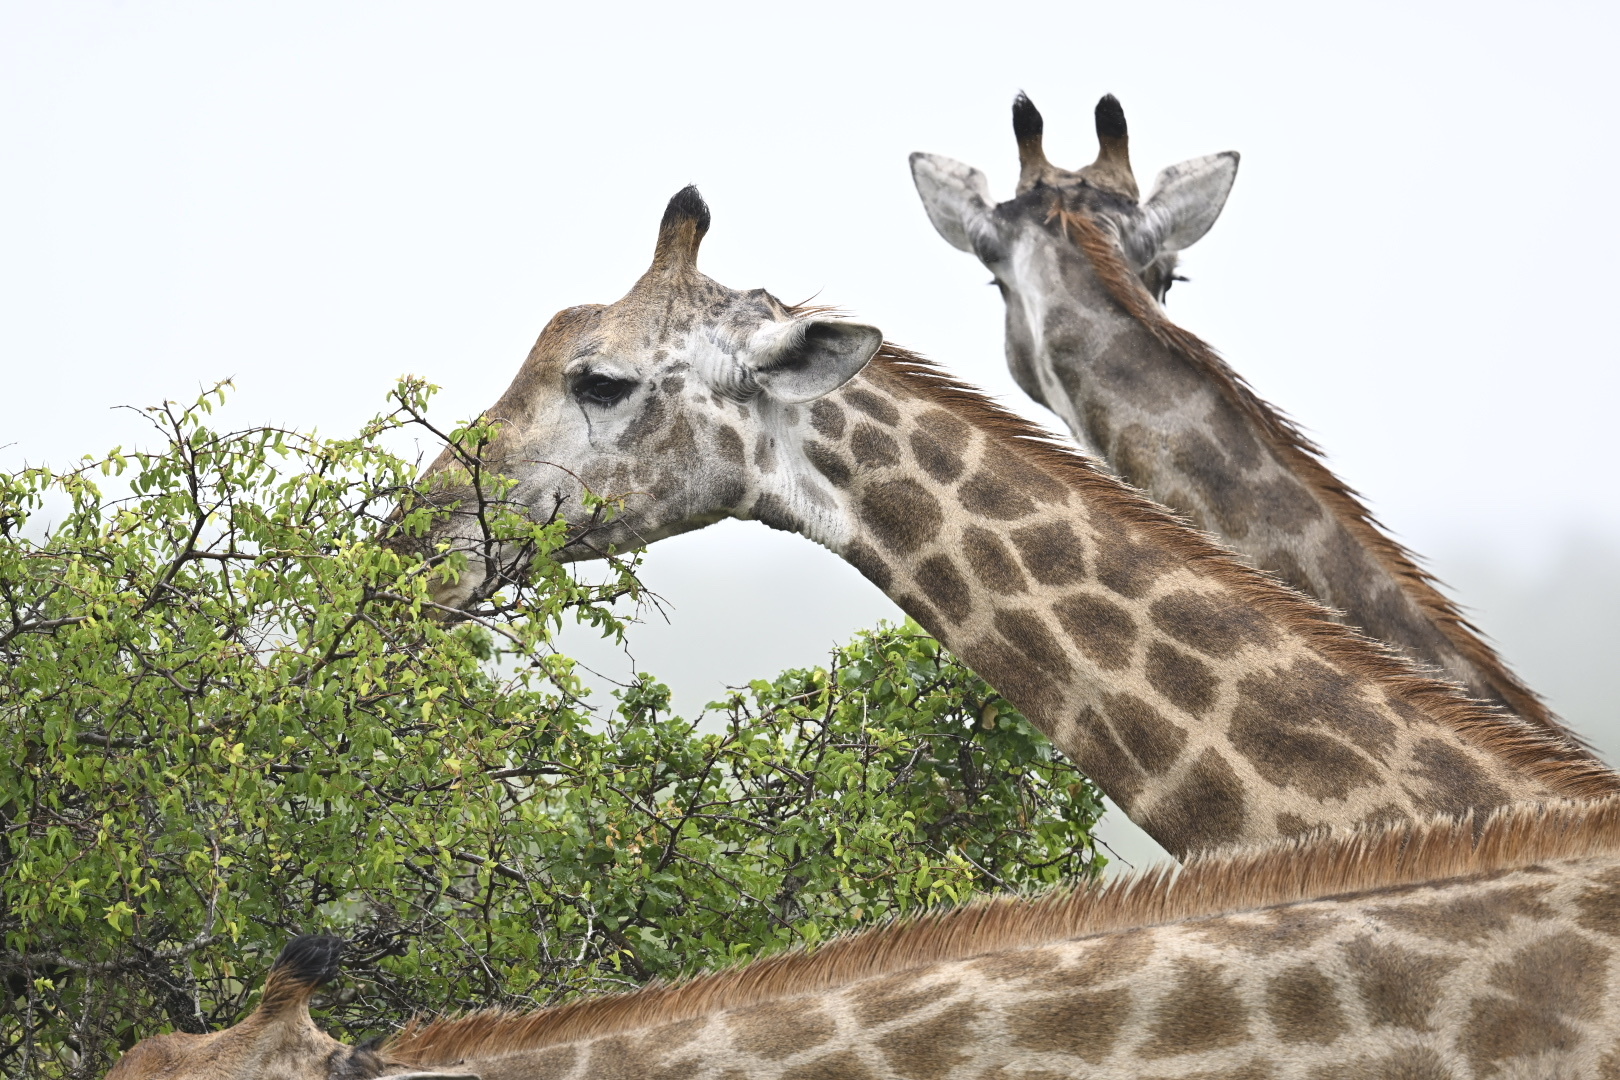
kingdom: Animalia
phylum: Chordata
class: Mammalia
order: Artiodactyla
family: Giraffidae
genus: Giraffa
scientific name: Giraffa giraffa
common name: Southern giraffe
